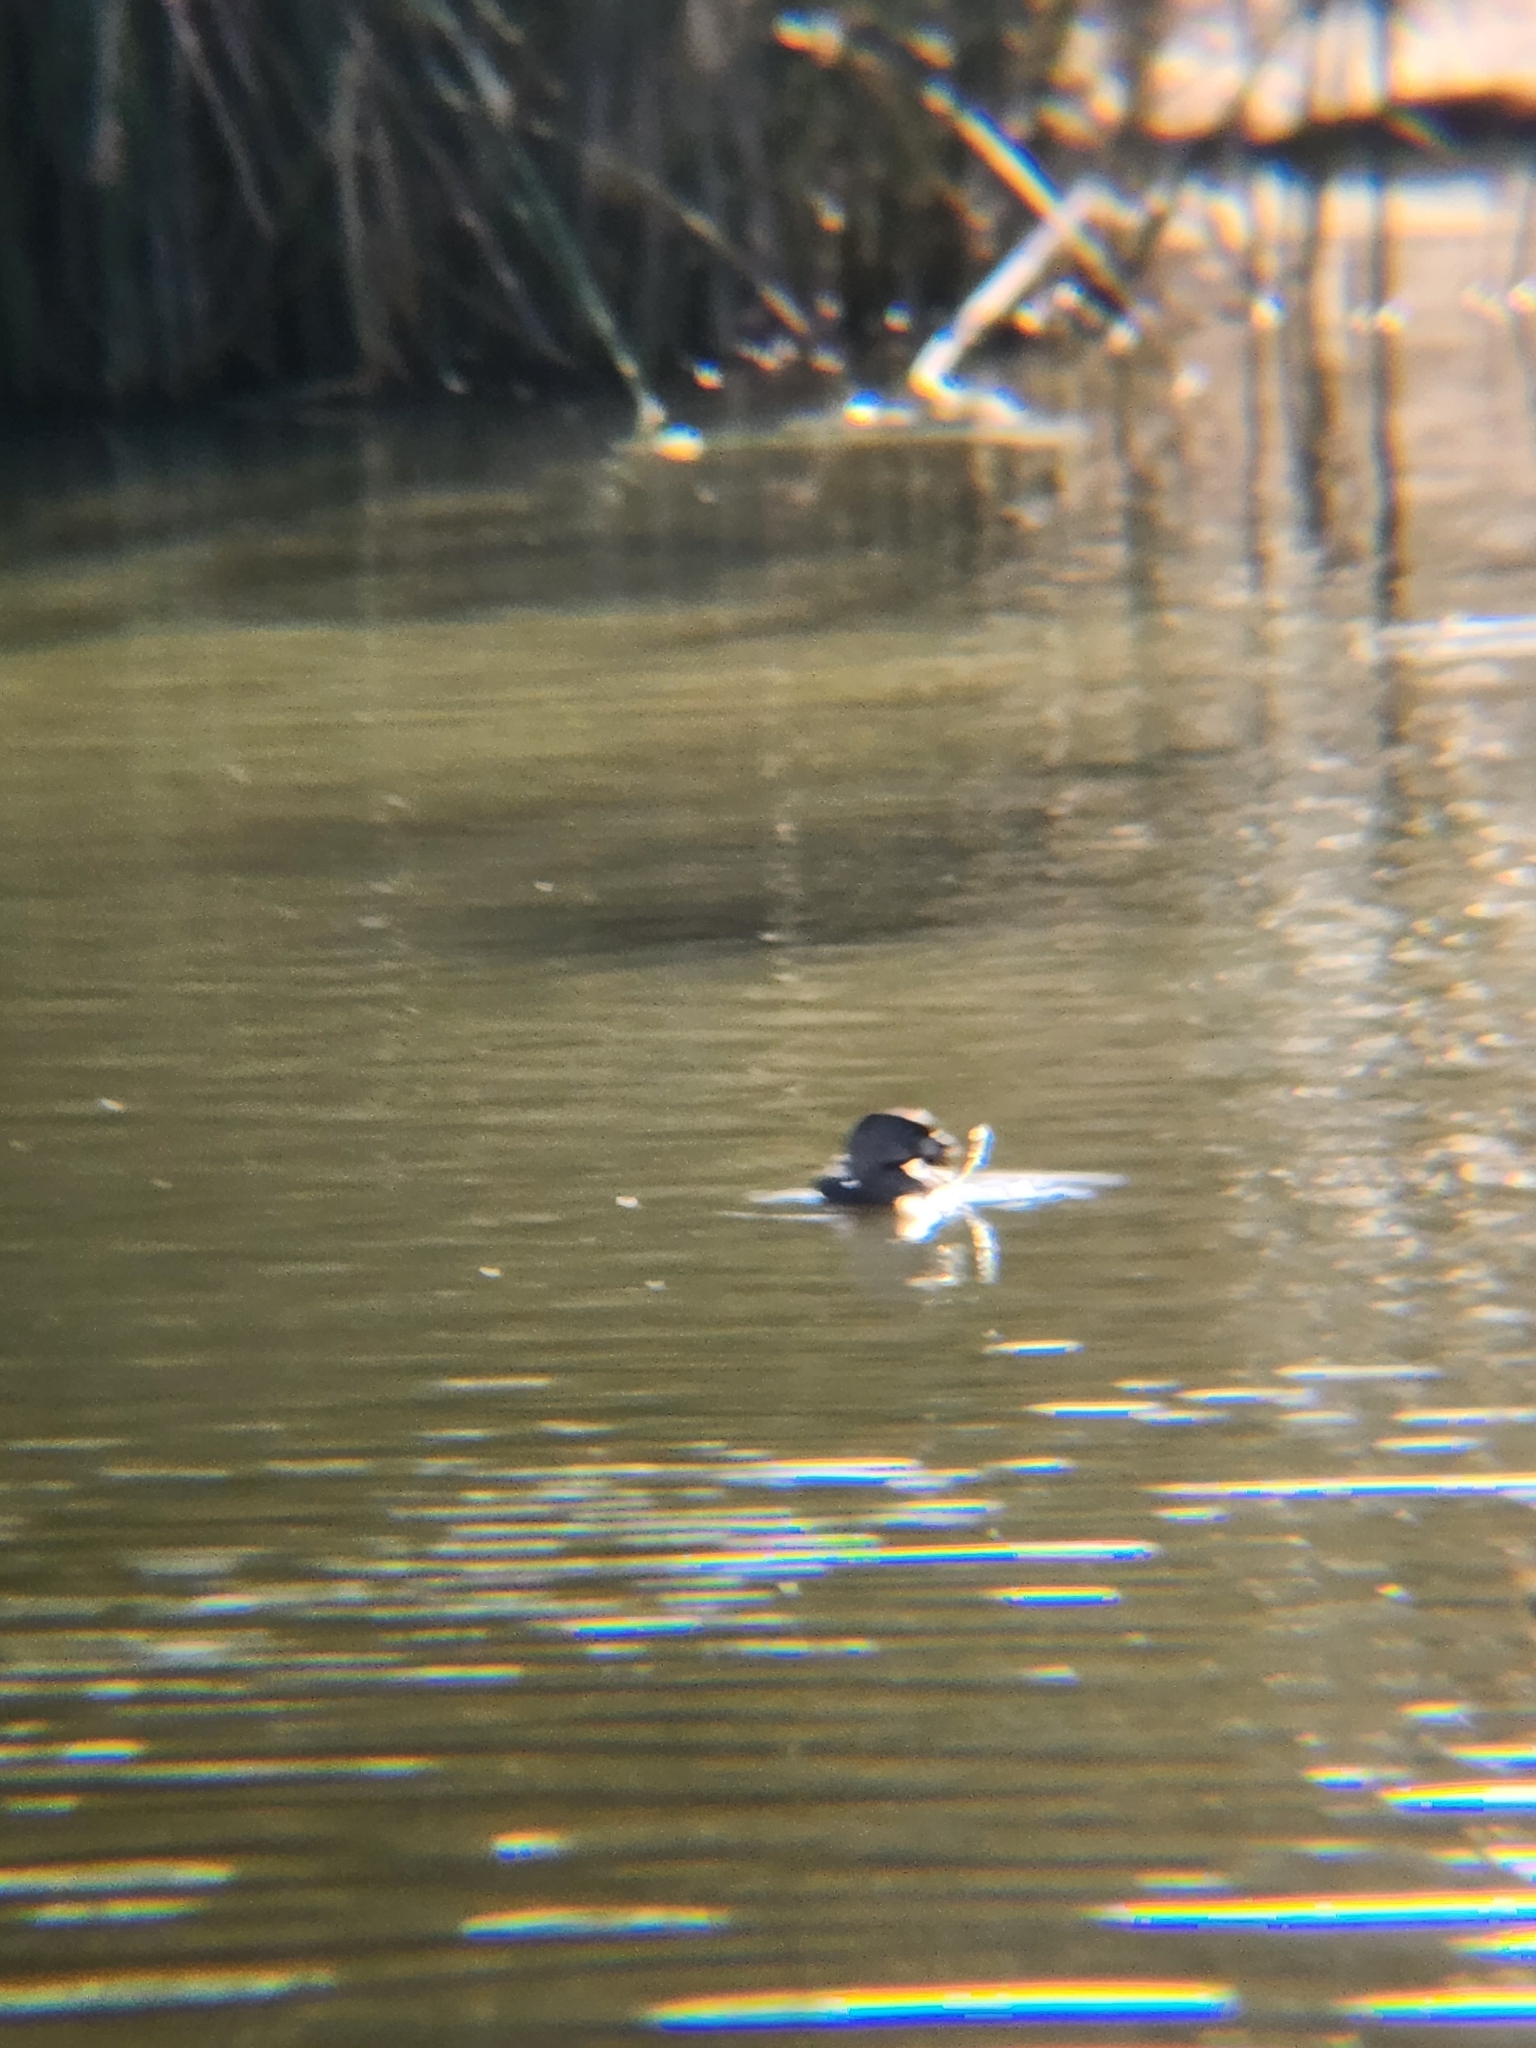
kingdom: Animalia
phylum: Chordata
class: Aves
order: Podicipediformes
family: Podicipedidae
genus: Podilymbus
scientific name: Podilymbus podiceps
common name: Pied-billed grebe
